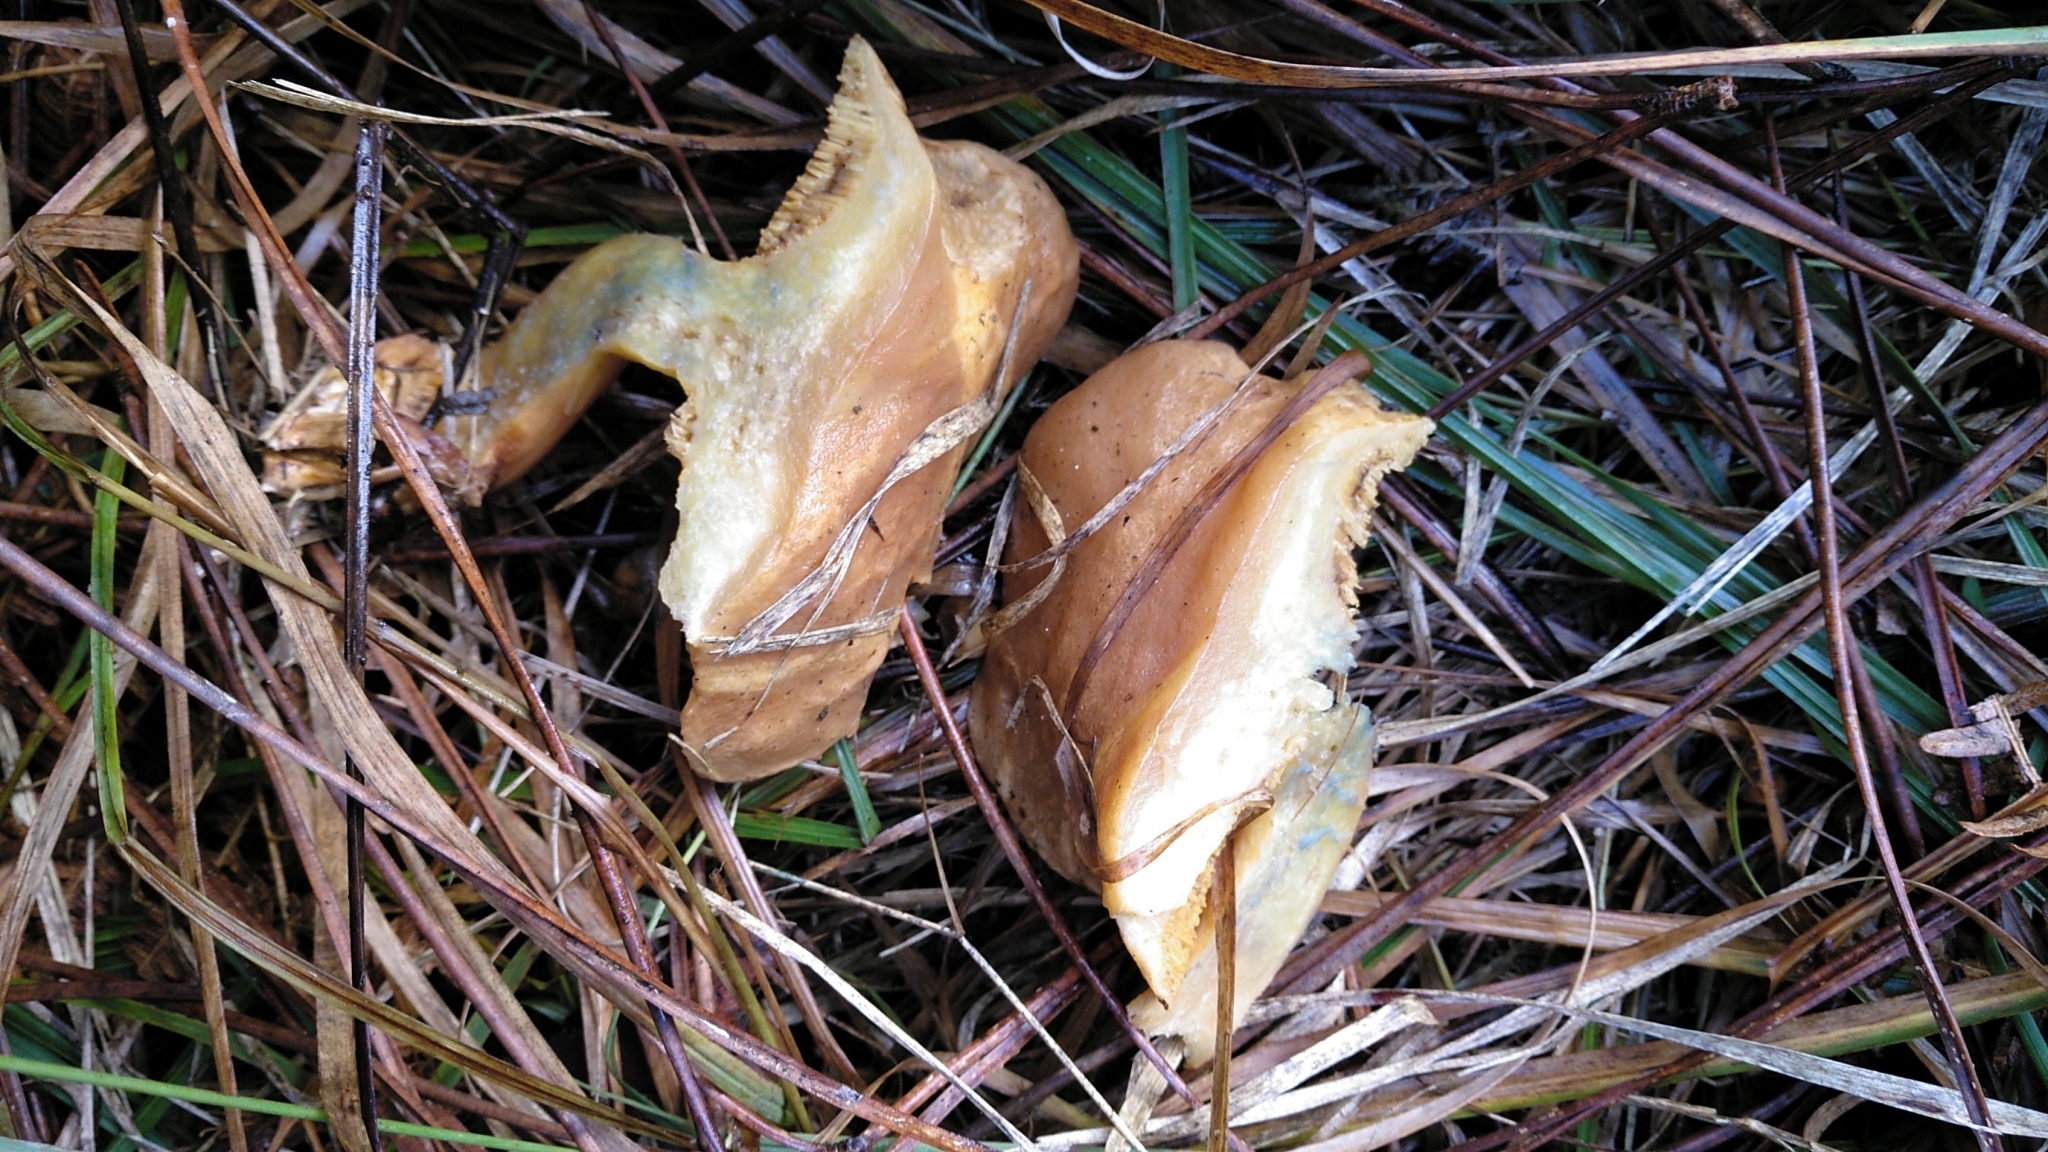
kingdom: Fungi
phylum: Basidiomycota
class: Agaricomycetes
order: Boletales
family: Suillaceae
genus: Suillus
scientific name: Suillus bovinus
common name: Bovine bolete
